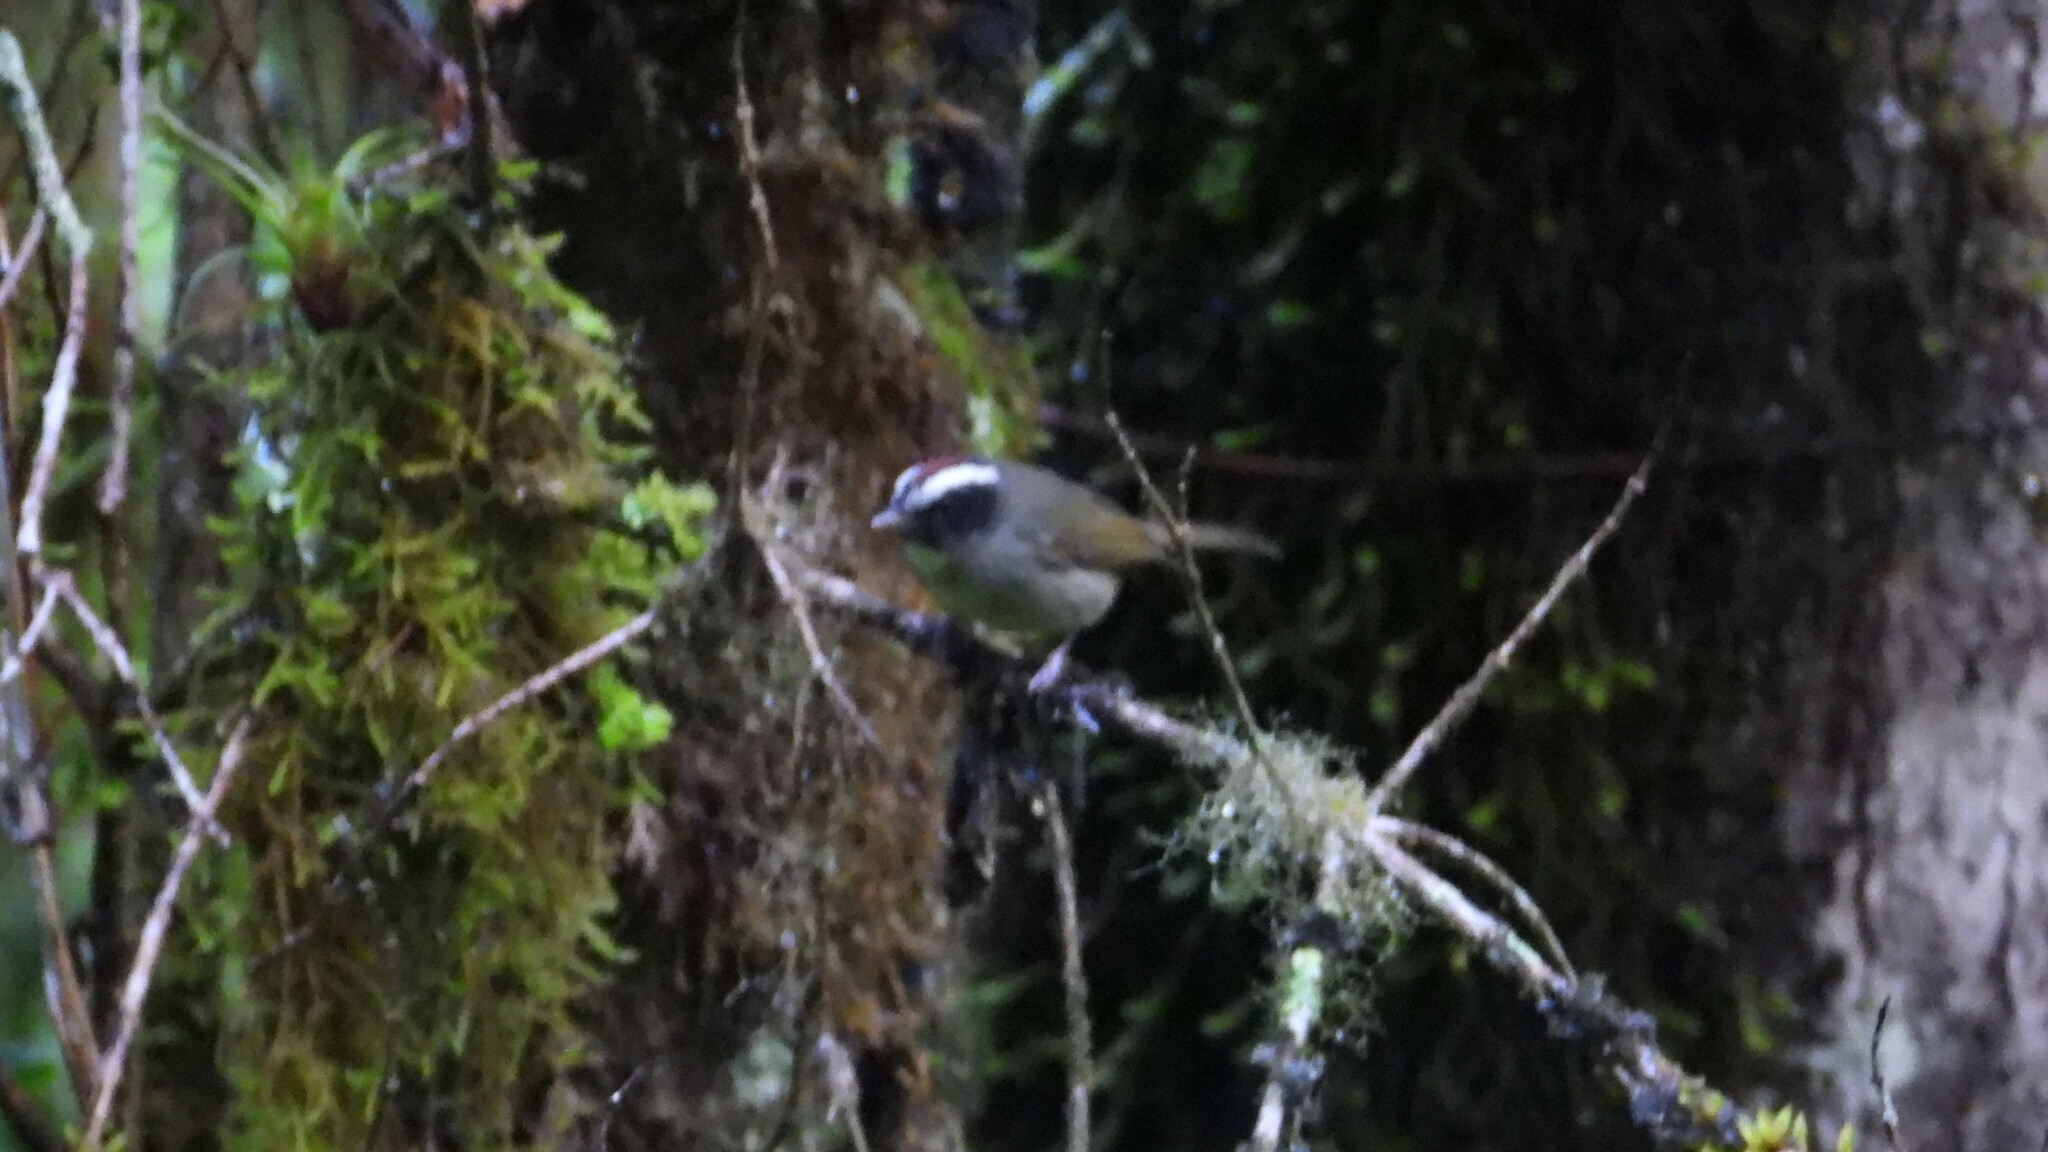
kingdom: Animalia
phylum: Chordata
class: Aves
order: Passeriformes
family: Parulidae
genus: Basileuterus
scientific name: Basileuterus melanogenys
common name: Black-cheeked warbler
